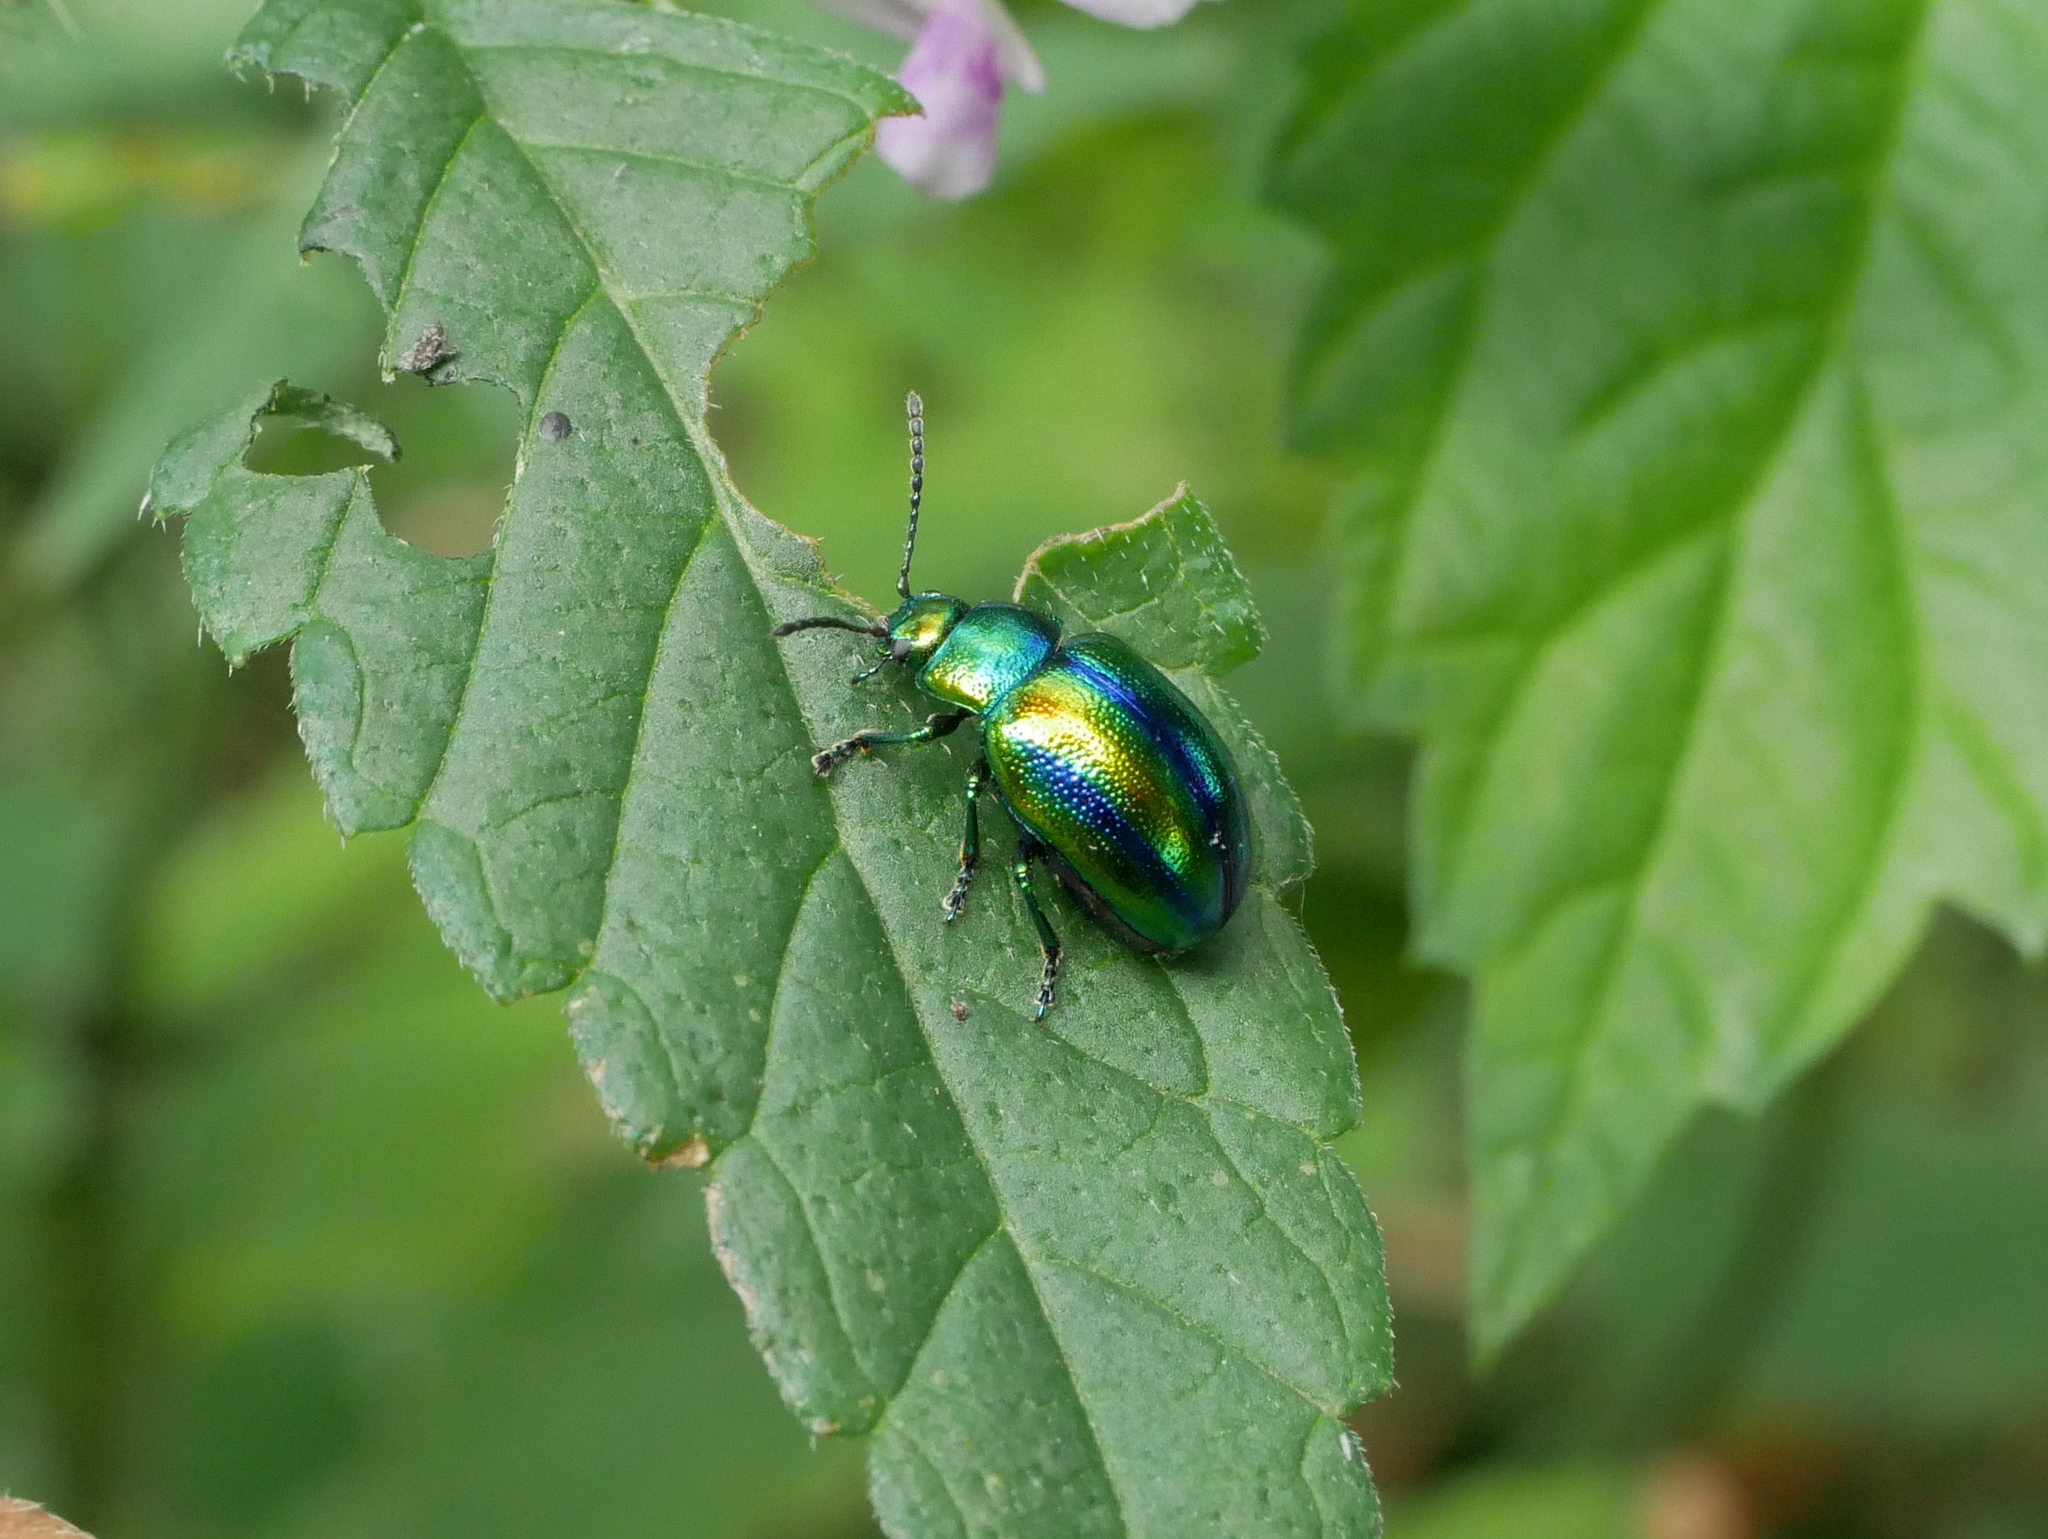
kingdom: Animalia
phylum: Arthropoda
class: Insecta
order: Coleoptera
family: Chrysomelidae
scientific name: Chrysomelidae
